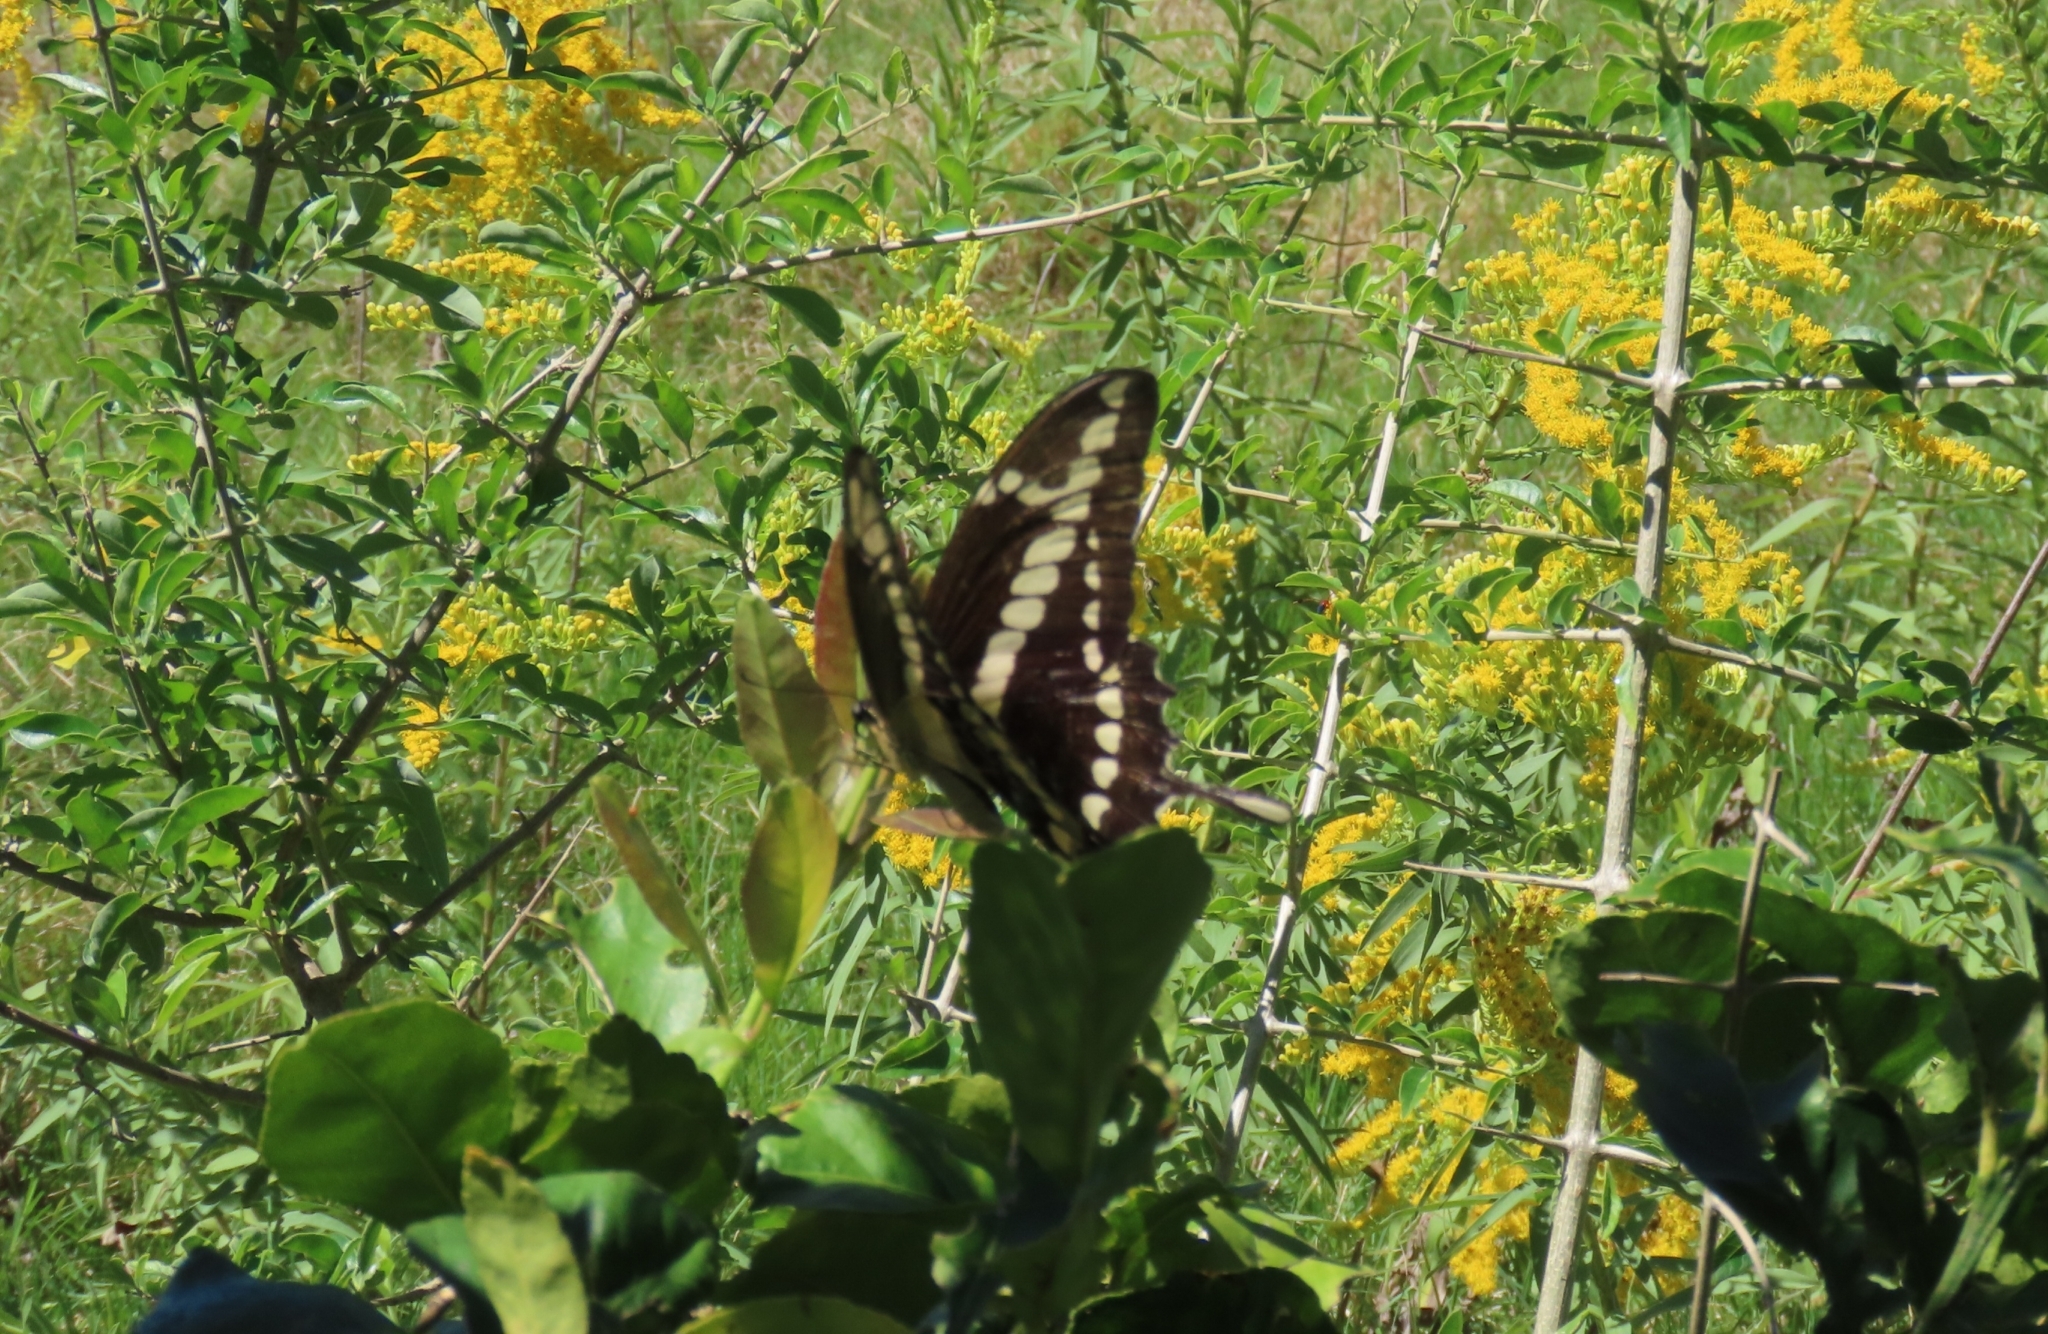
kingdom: Animalia
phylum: Arthropoda
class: Insecta
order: Lepidoptera
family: Papilionidae
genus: Papilio
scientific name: Papilio thoas
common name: King swallowtail
